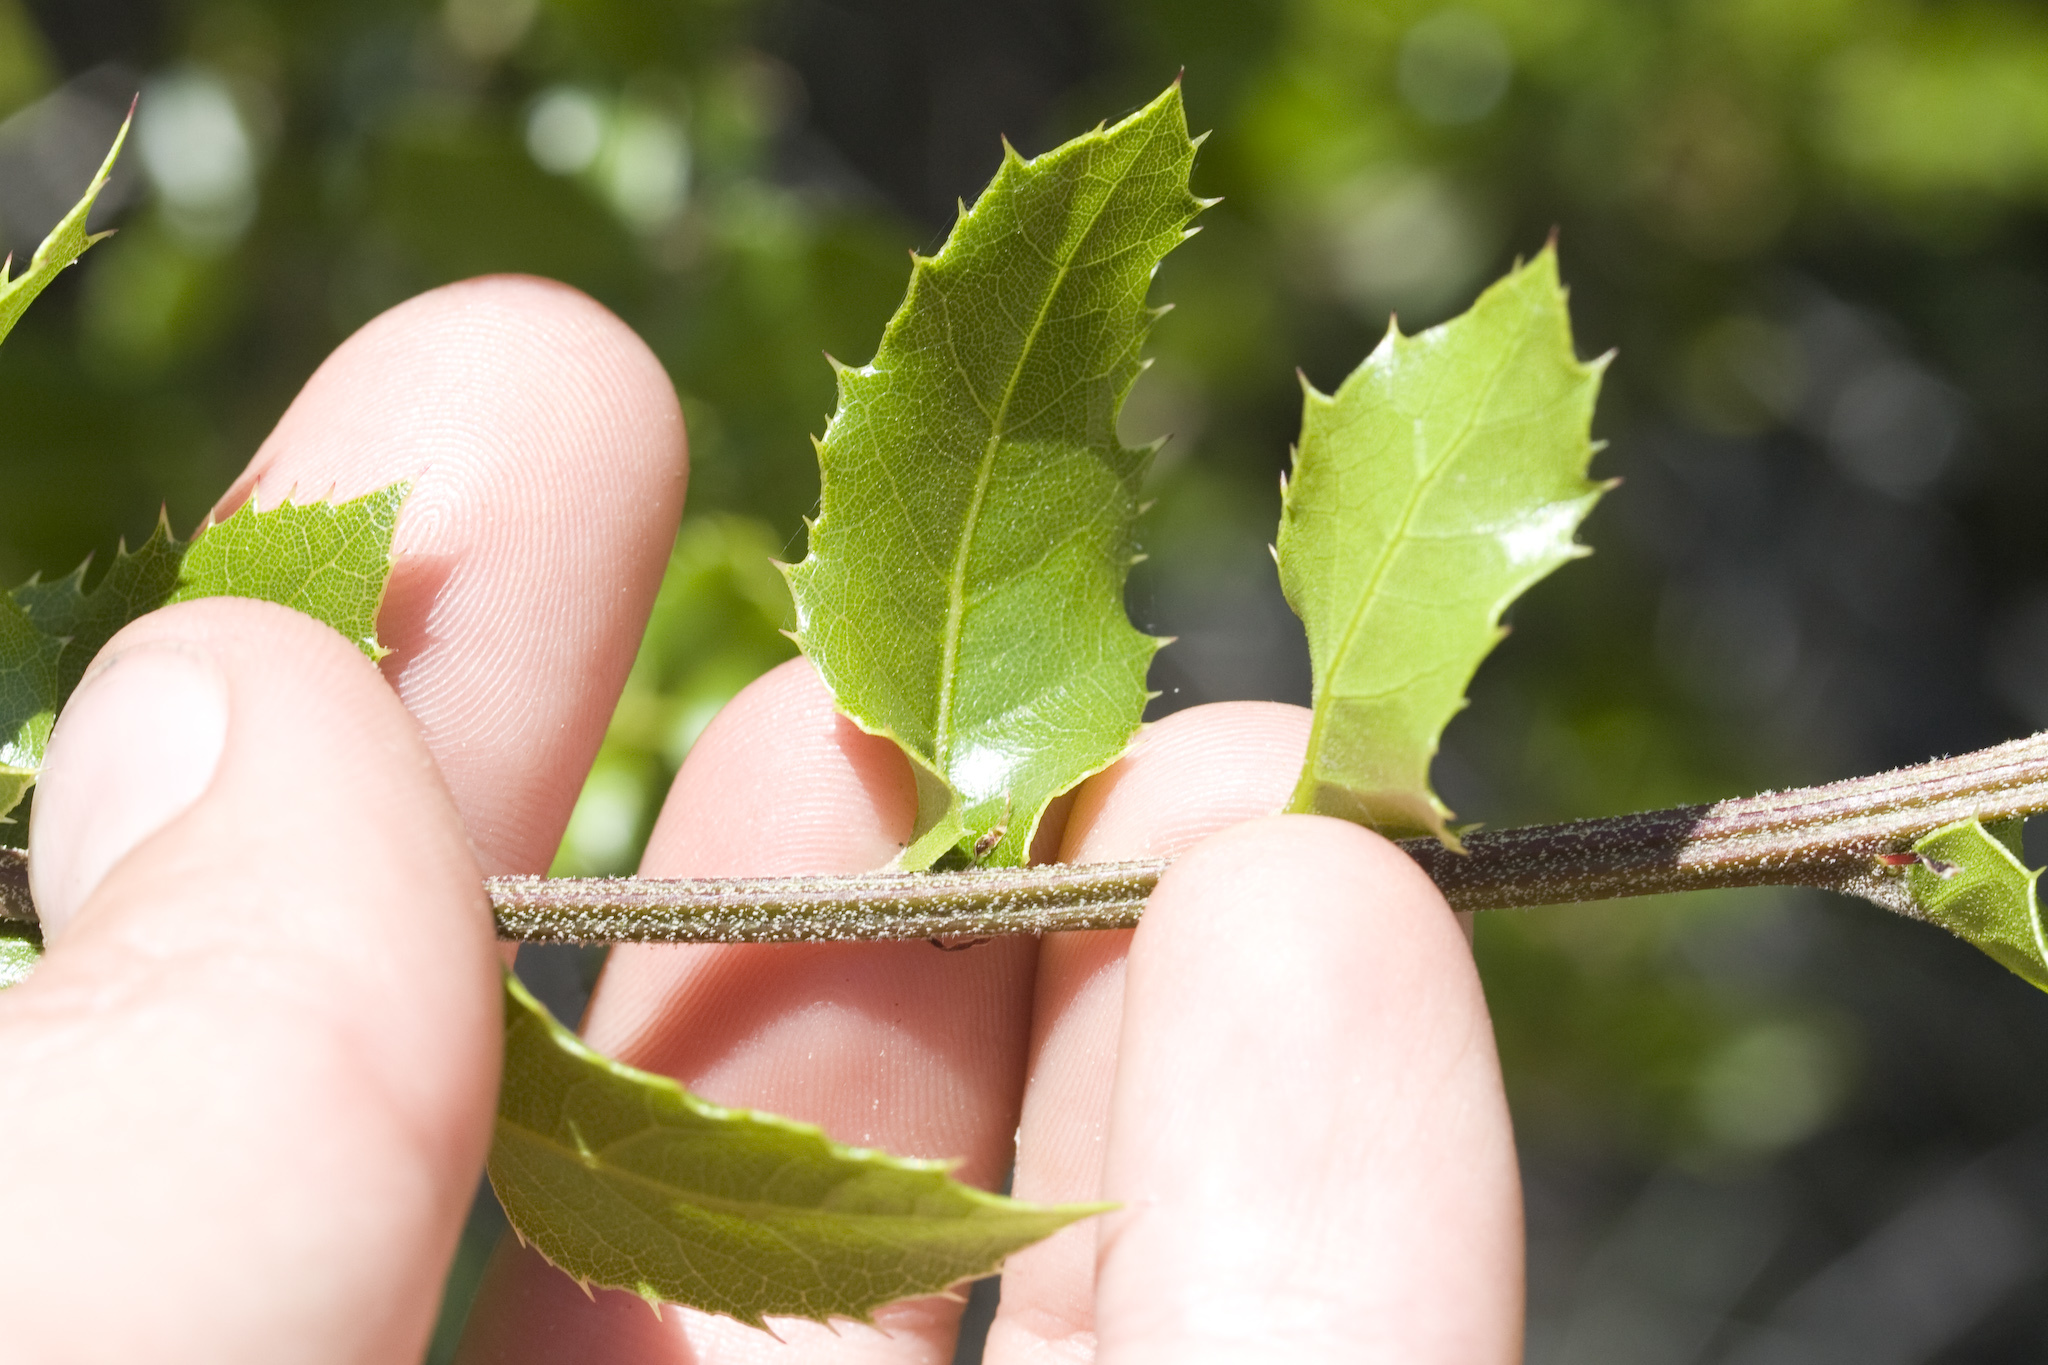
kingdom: Plantae
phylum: Tracheophyta
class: Magnoliopsida
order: Fagales
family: Fagaceae
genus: Quercus
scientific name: Quercus wislizeni
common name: Interior live oak
